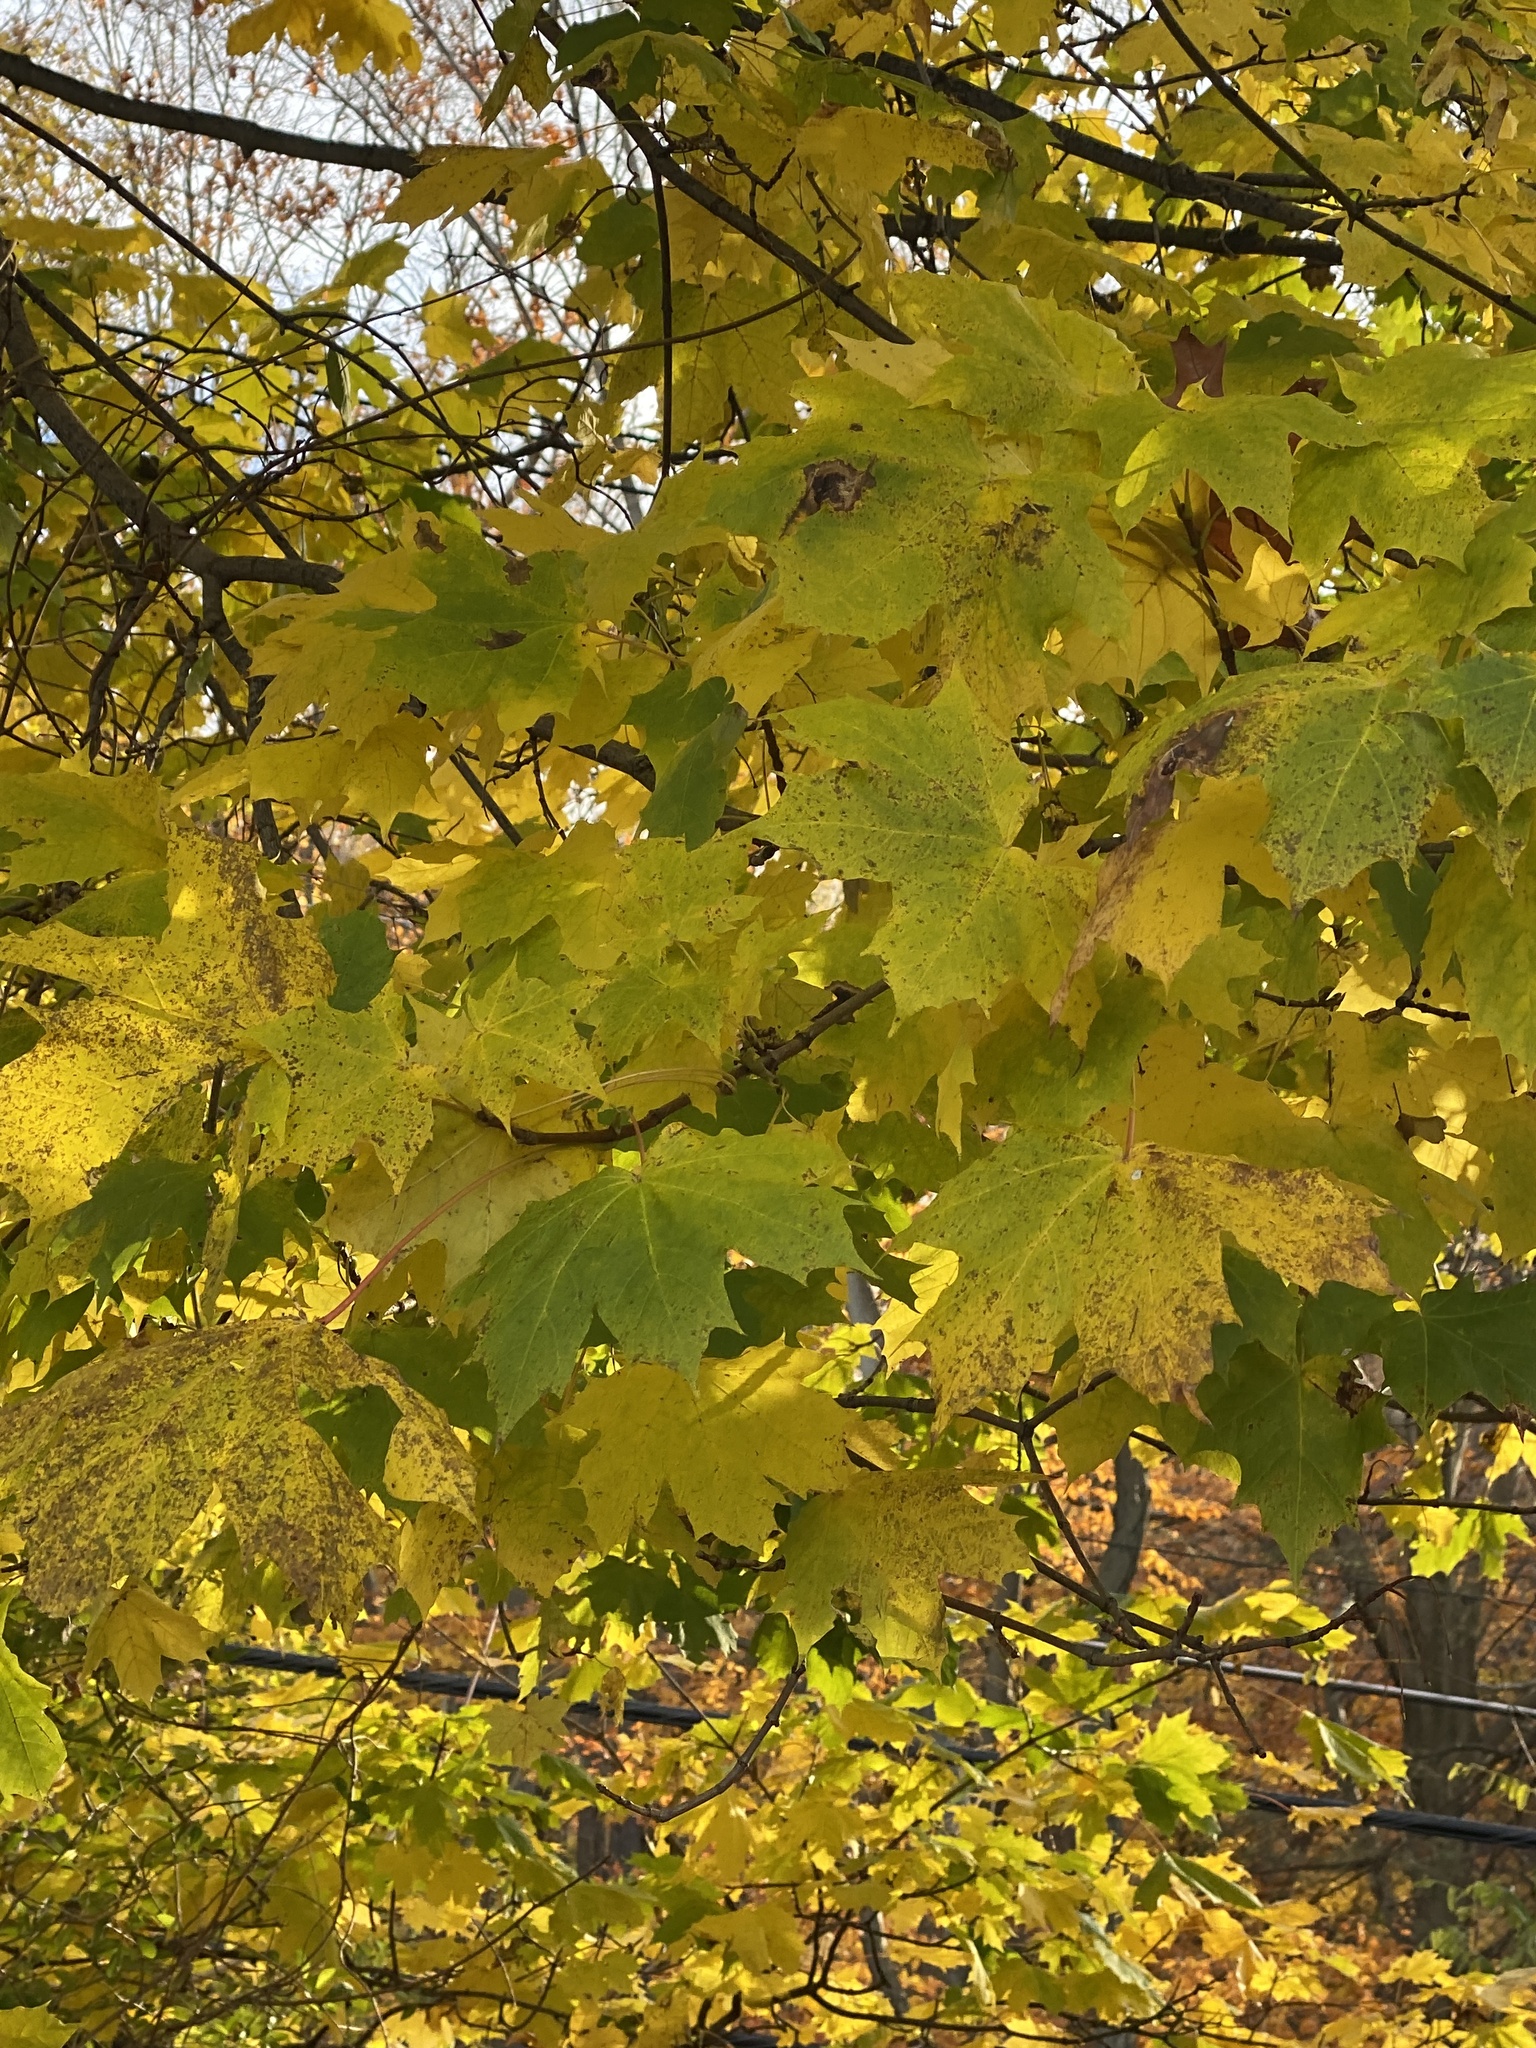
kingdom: Plantae
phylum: Tracheophyta
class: Magnoliopsida
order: Sapindales
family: Sapindaceae
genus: Acer
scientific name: Acer platanoides
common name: Norway maple
